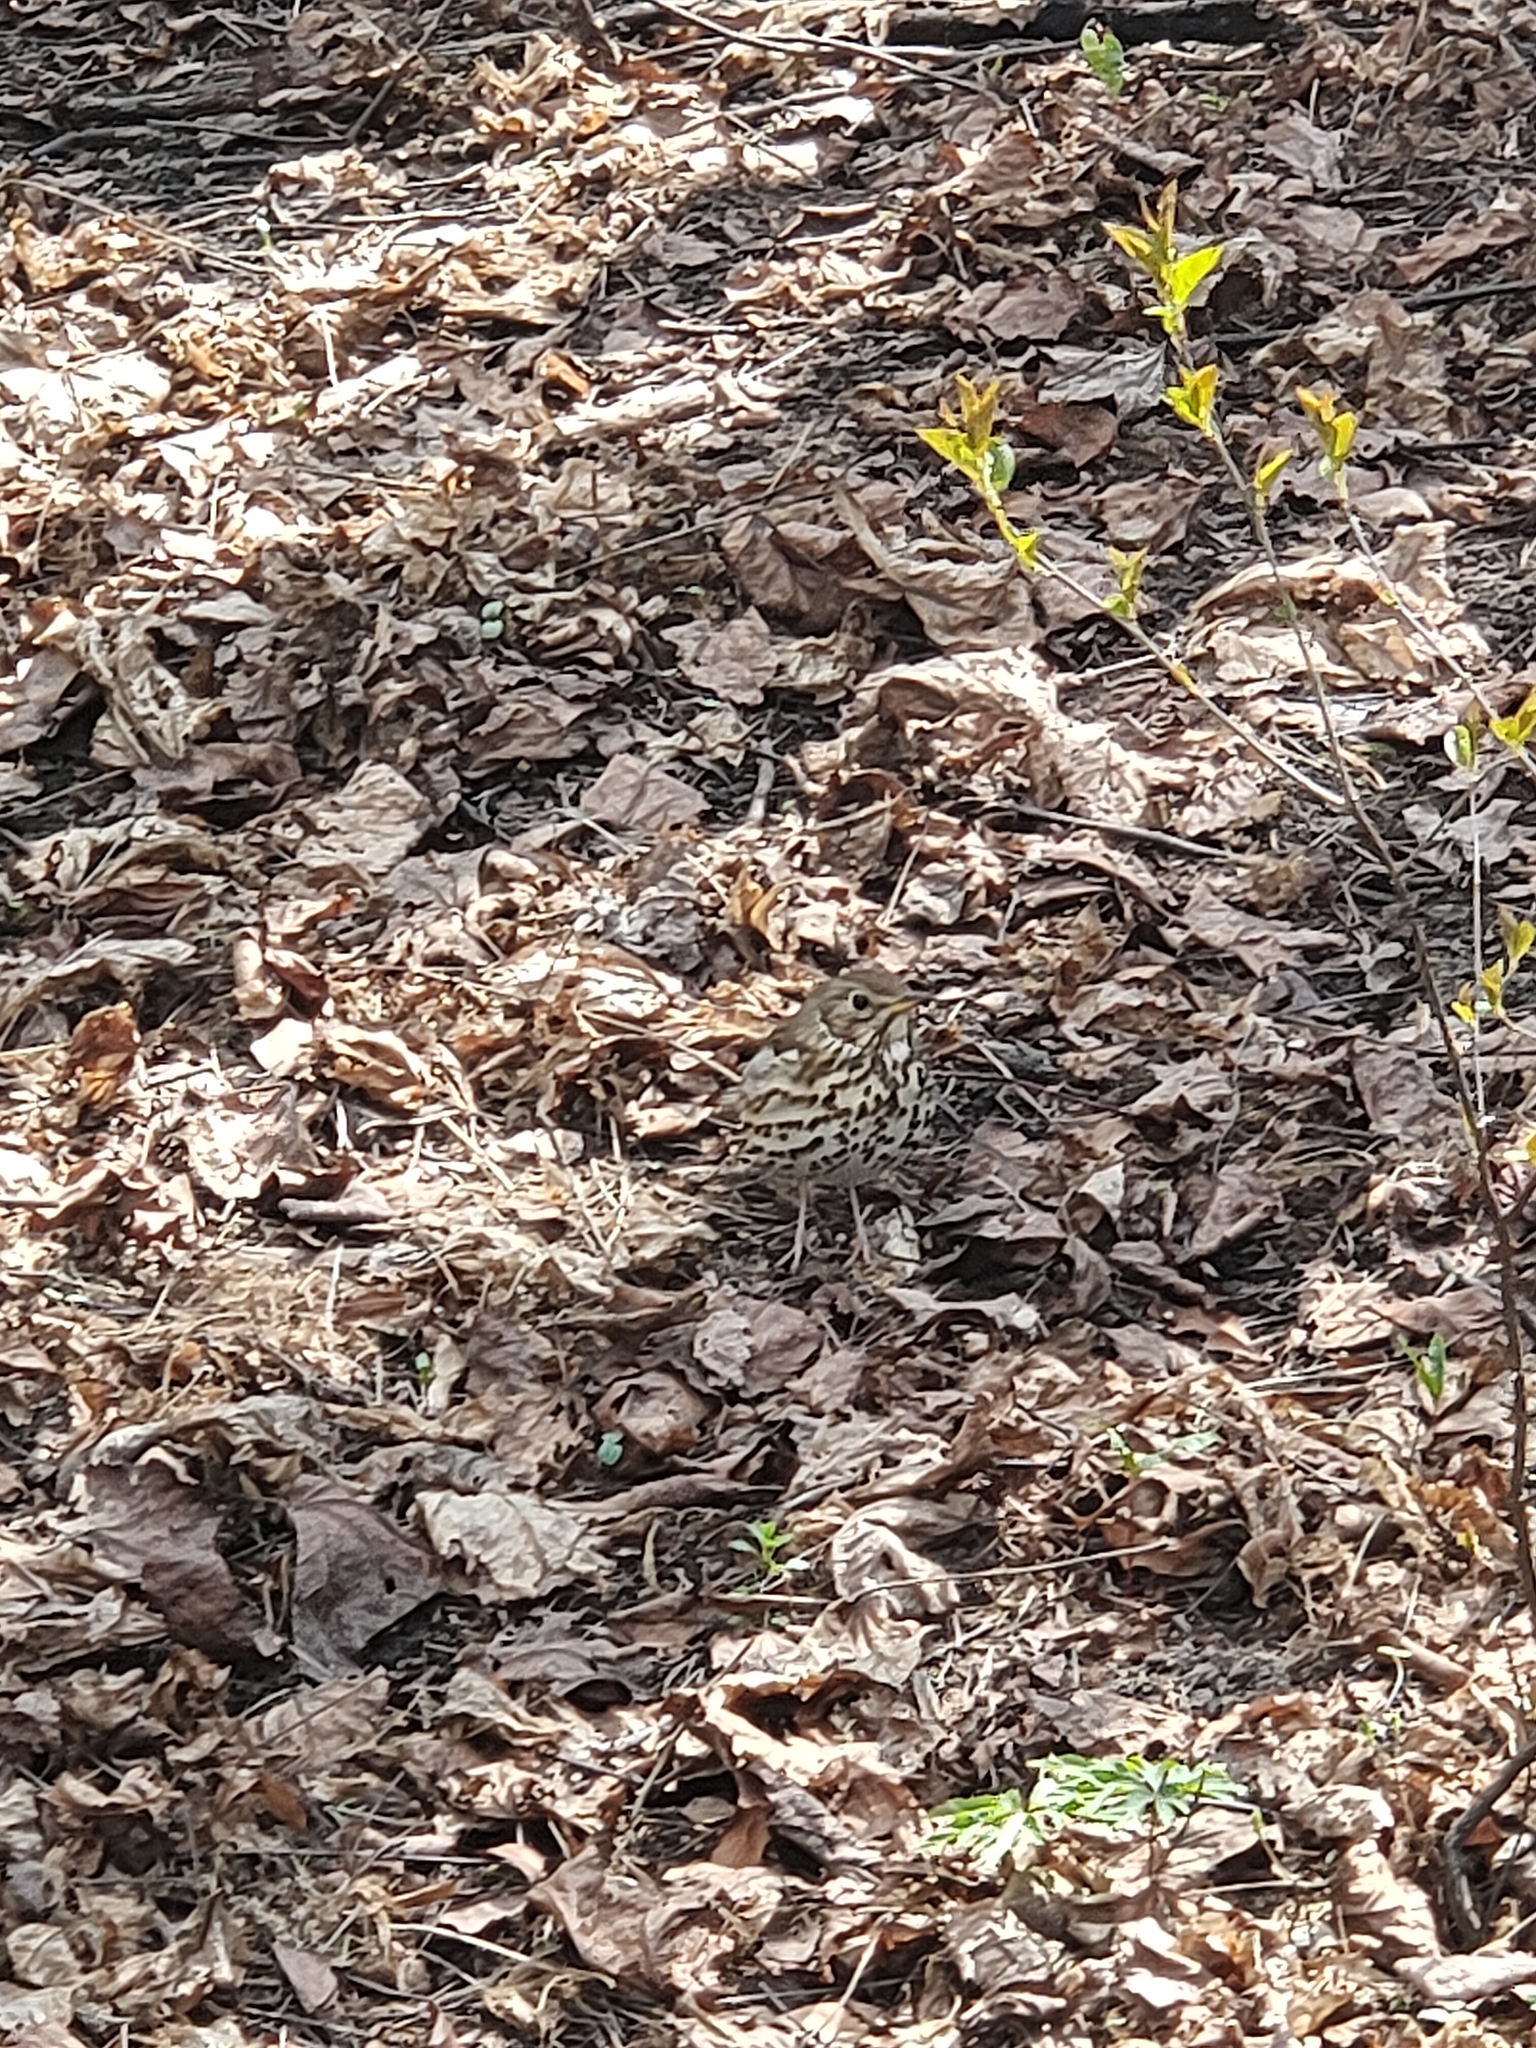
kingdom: Animalia
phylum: Chordata
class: Aves
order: Passeriformes
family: Turdidae
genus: Turdus
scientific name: Turdus philomelos
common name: Song thrush
